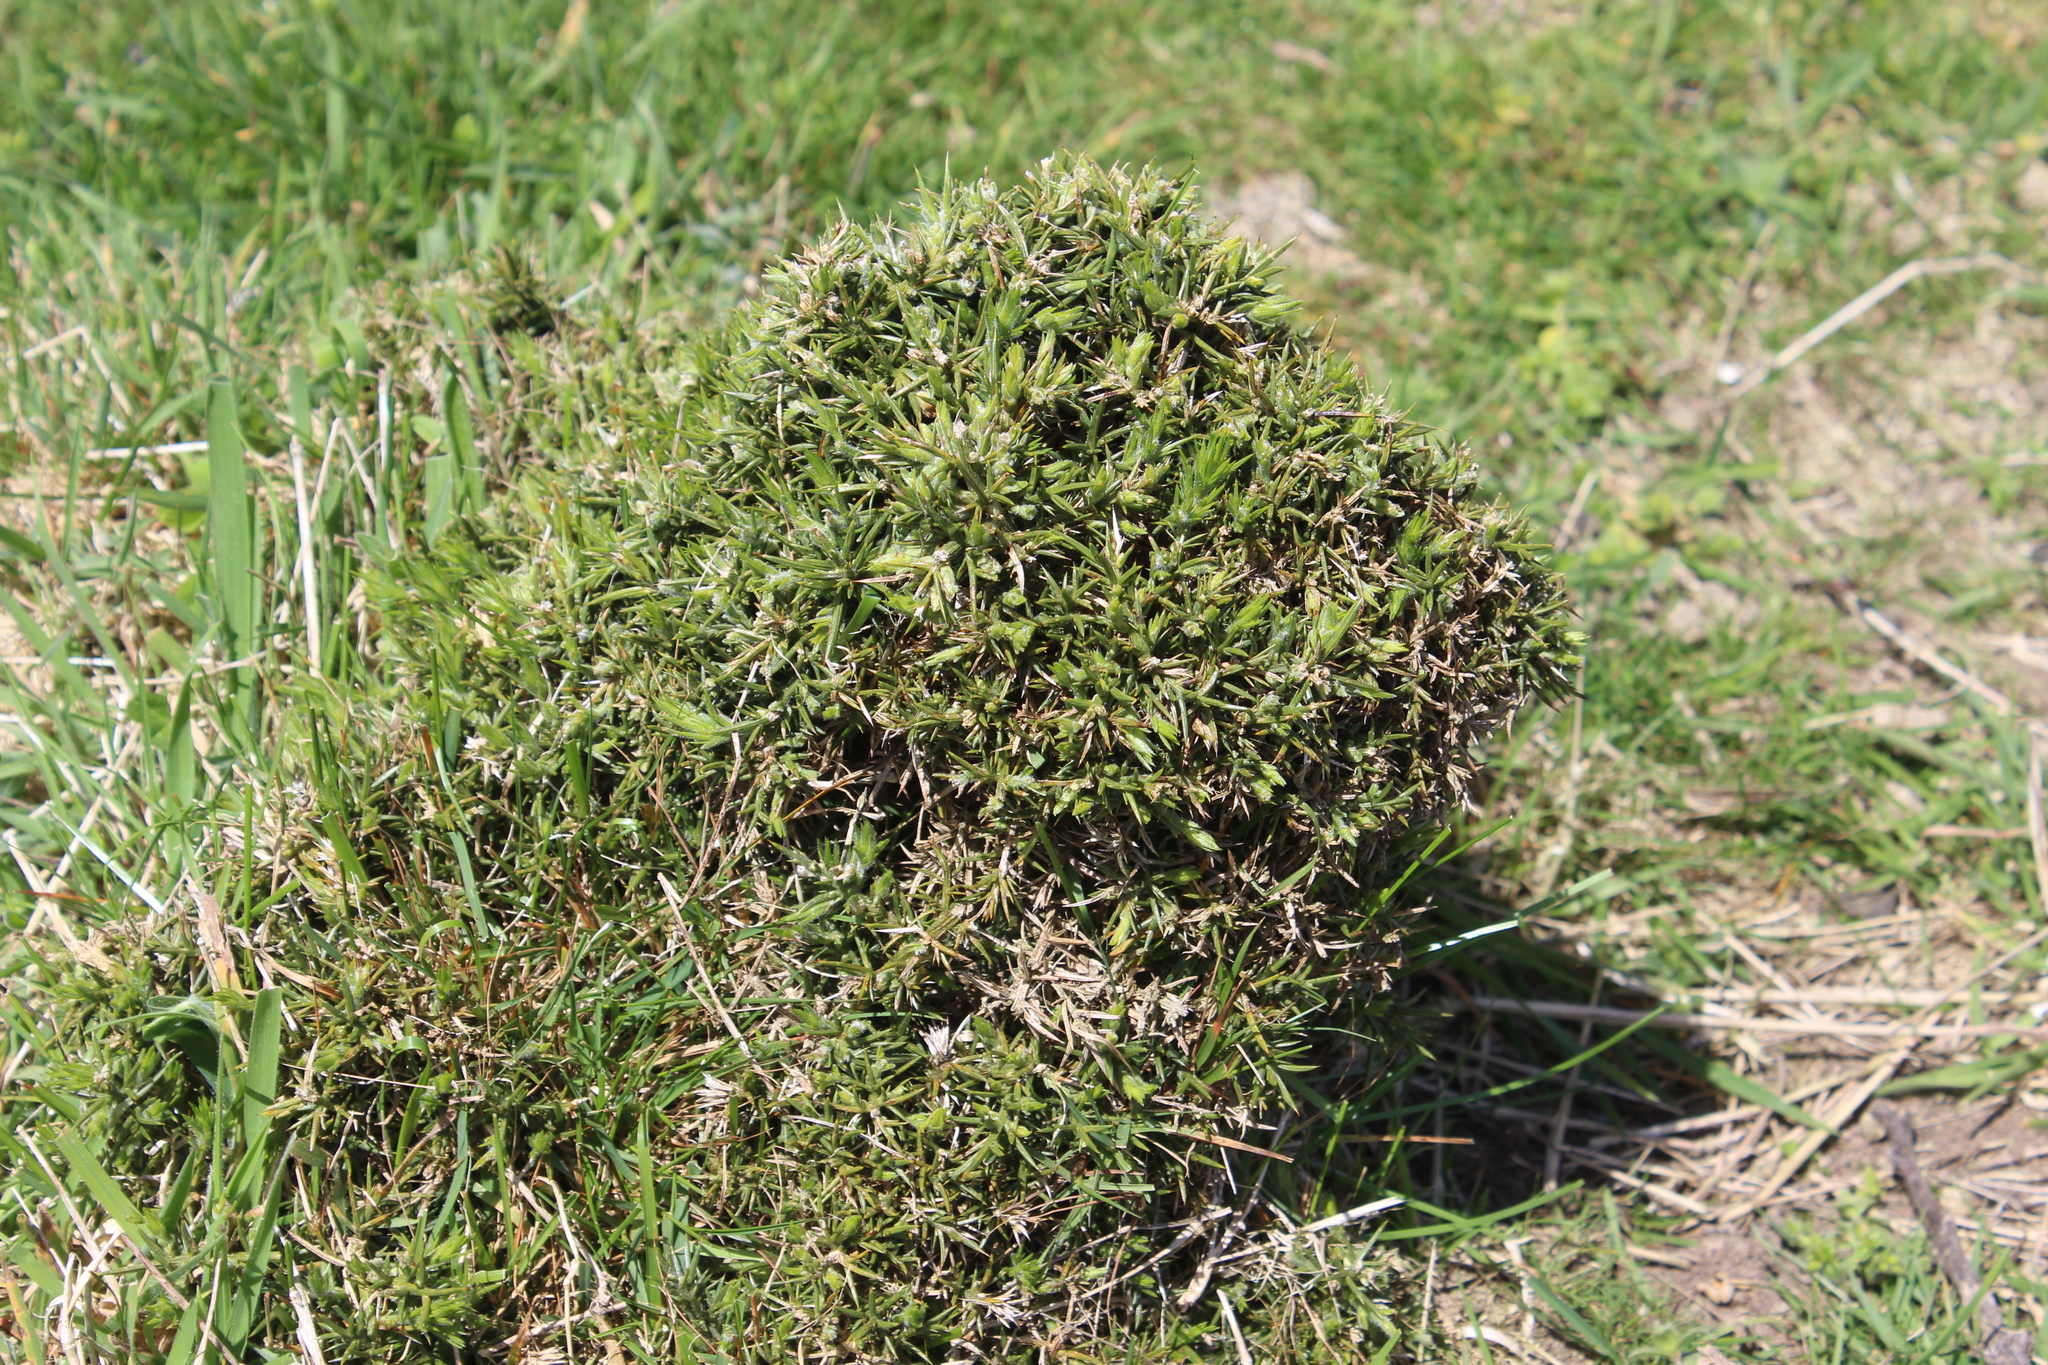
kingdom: Plantae
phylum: Tracheophyta
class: Magnoliopsida
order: Fabales
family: Fabaceae
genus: Ulex
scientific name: Ulex europaeus
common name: Common gorse
